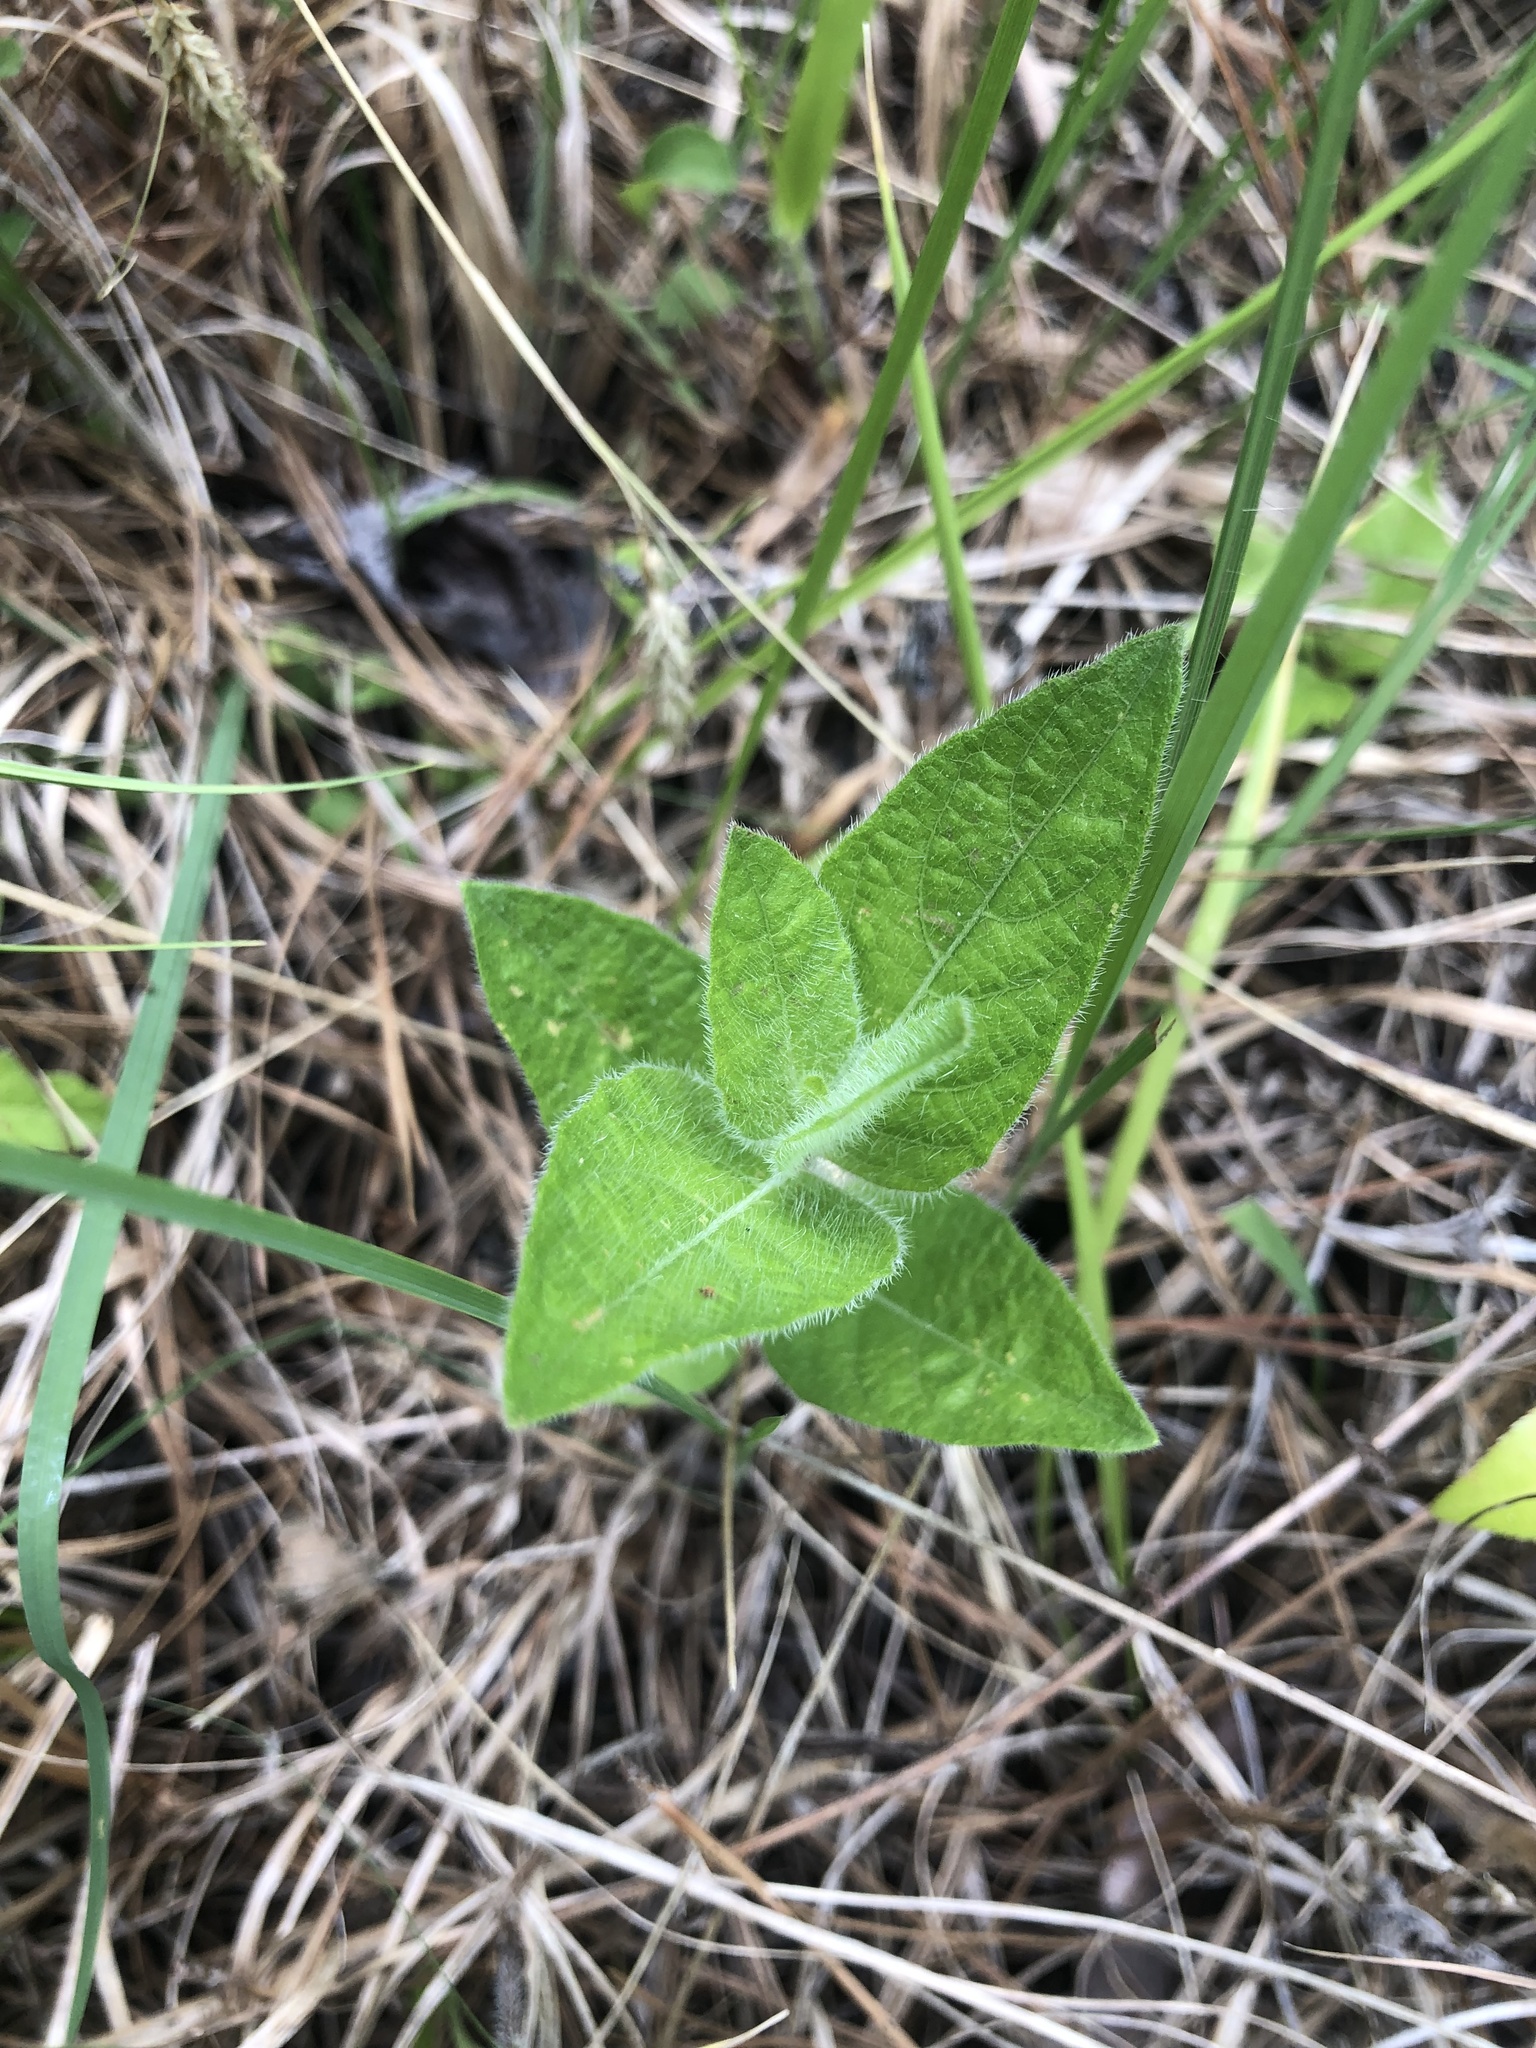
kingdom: Plantae
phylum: Tracheophyta
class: Magnoliopsida
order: Lamiales
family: Acanthaceae
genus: Ruellia
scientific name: Ruellia humilis
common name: Fringe-leaf ruellia
